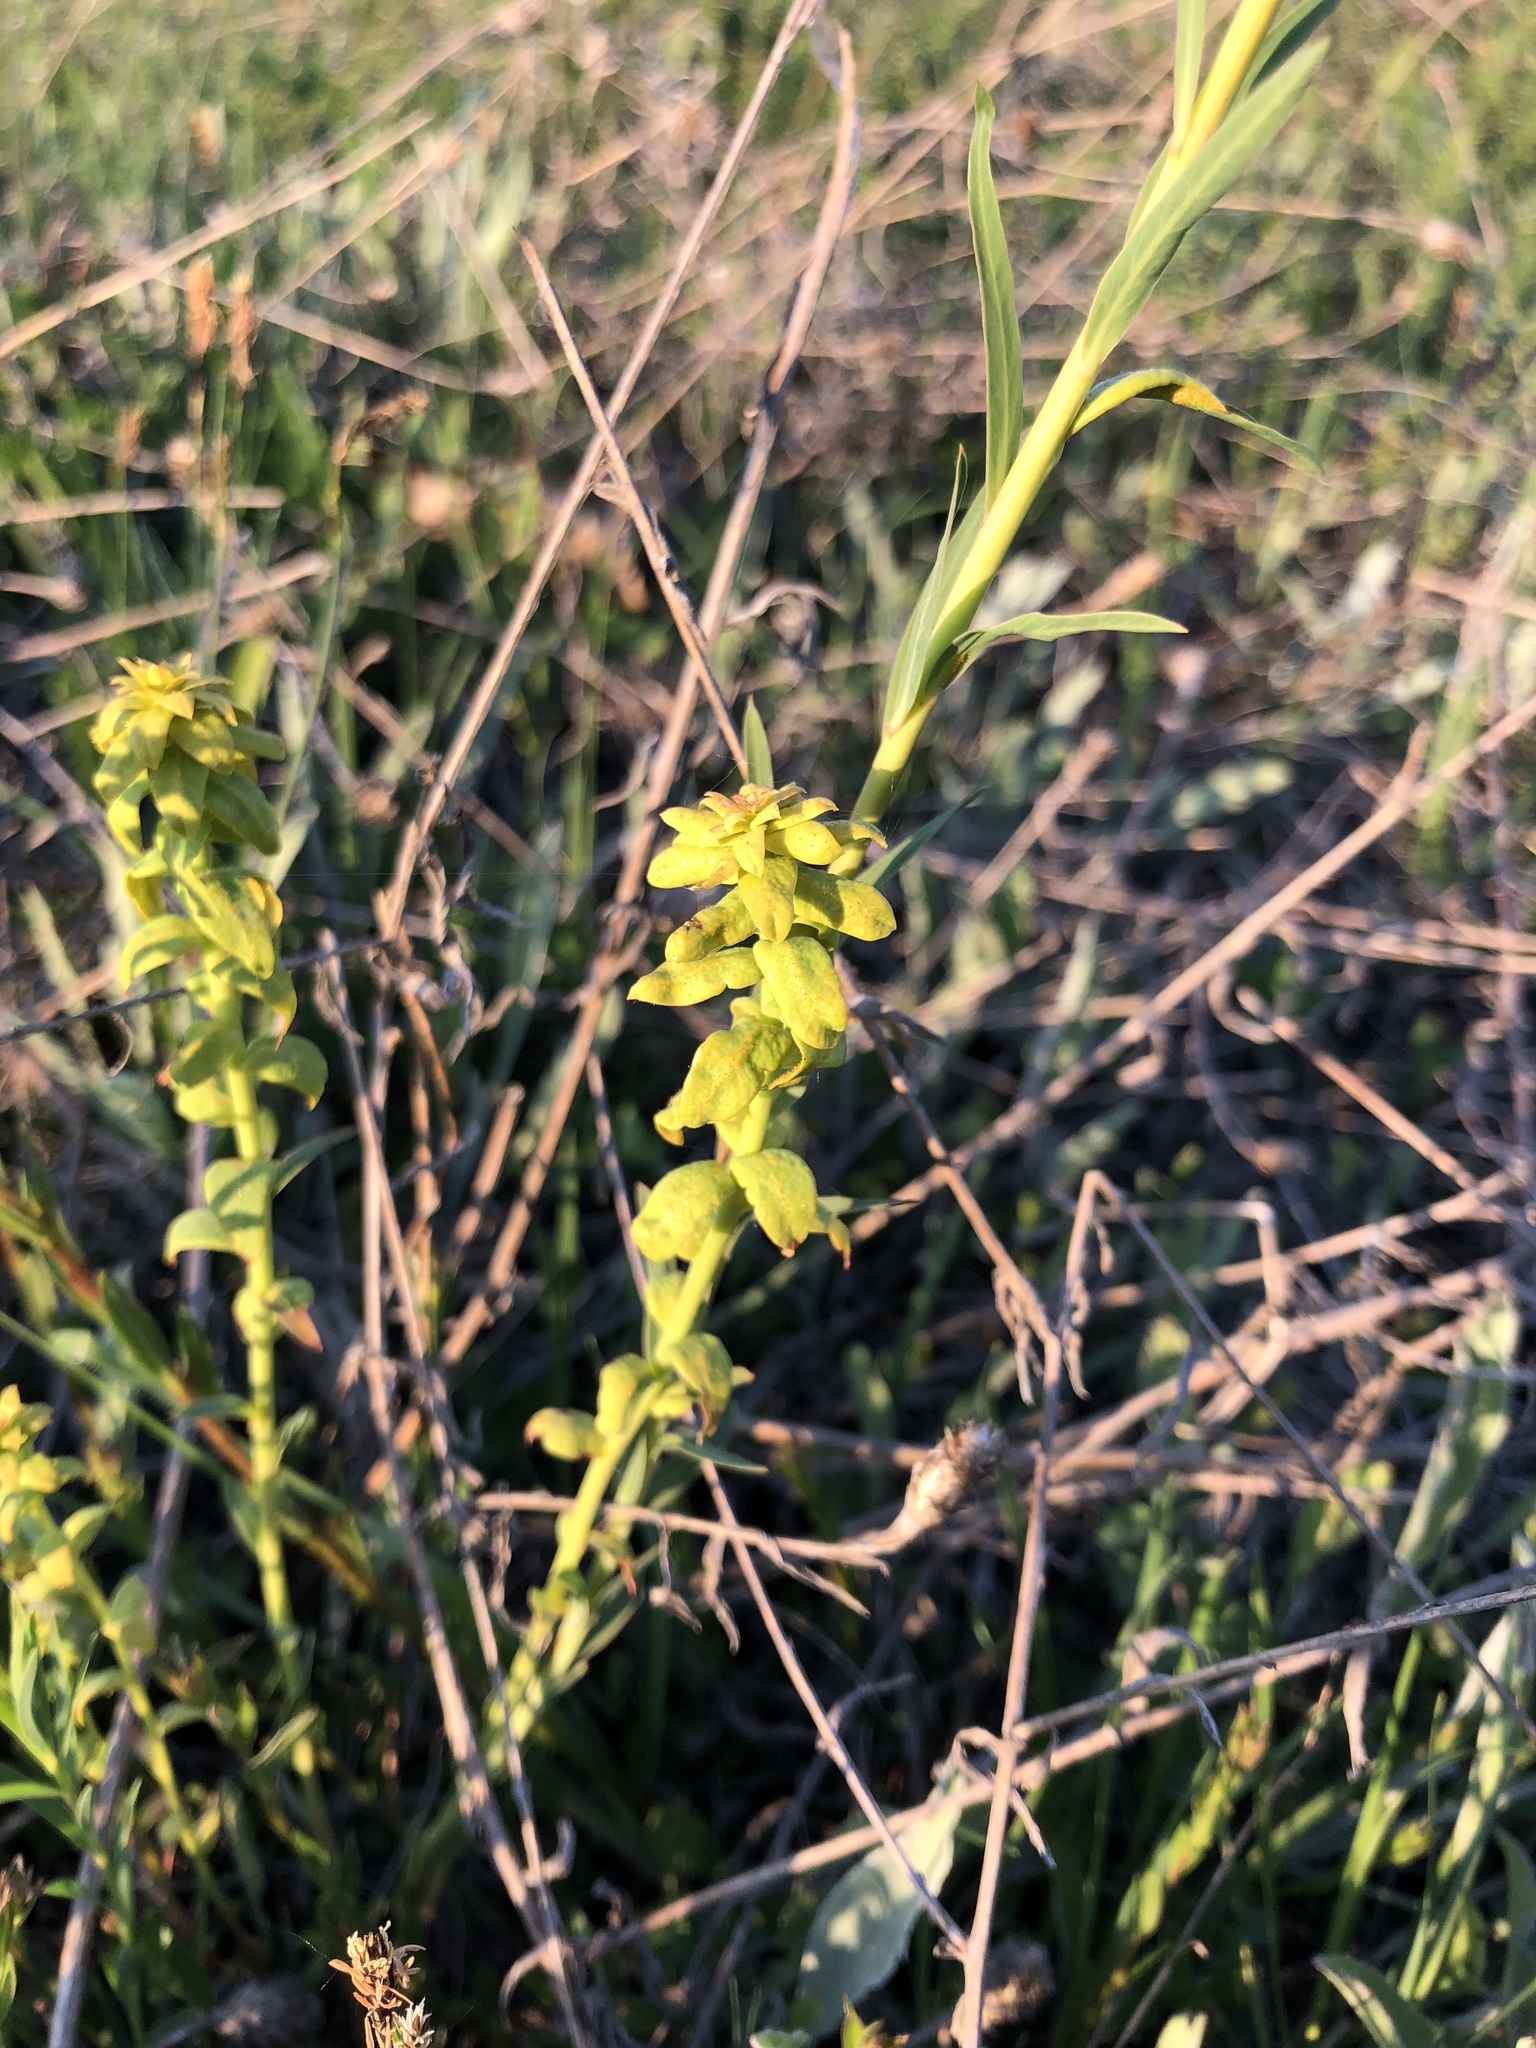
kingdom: Plantae
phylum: Tracheophyta
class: Magnoliopsida
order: Malpighiales
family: Euphorbiaceae
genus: Euphorbia
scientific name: Euphorbia cyparissias
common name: Cypress spurge
